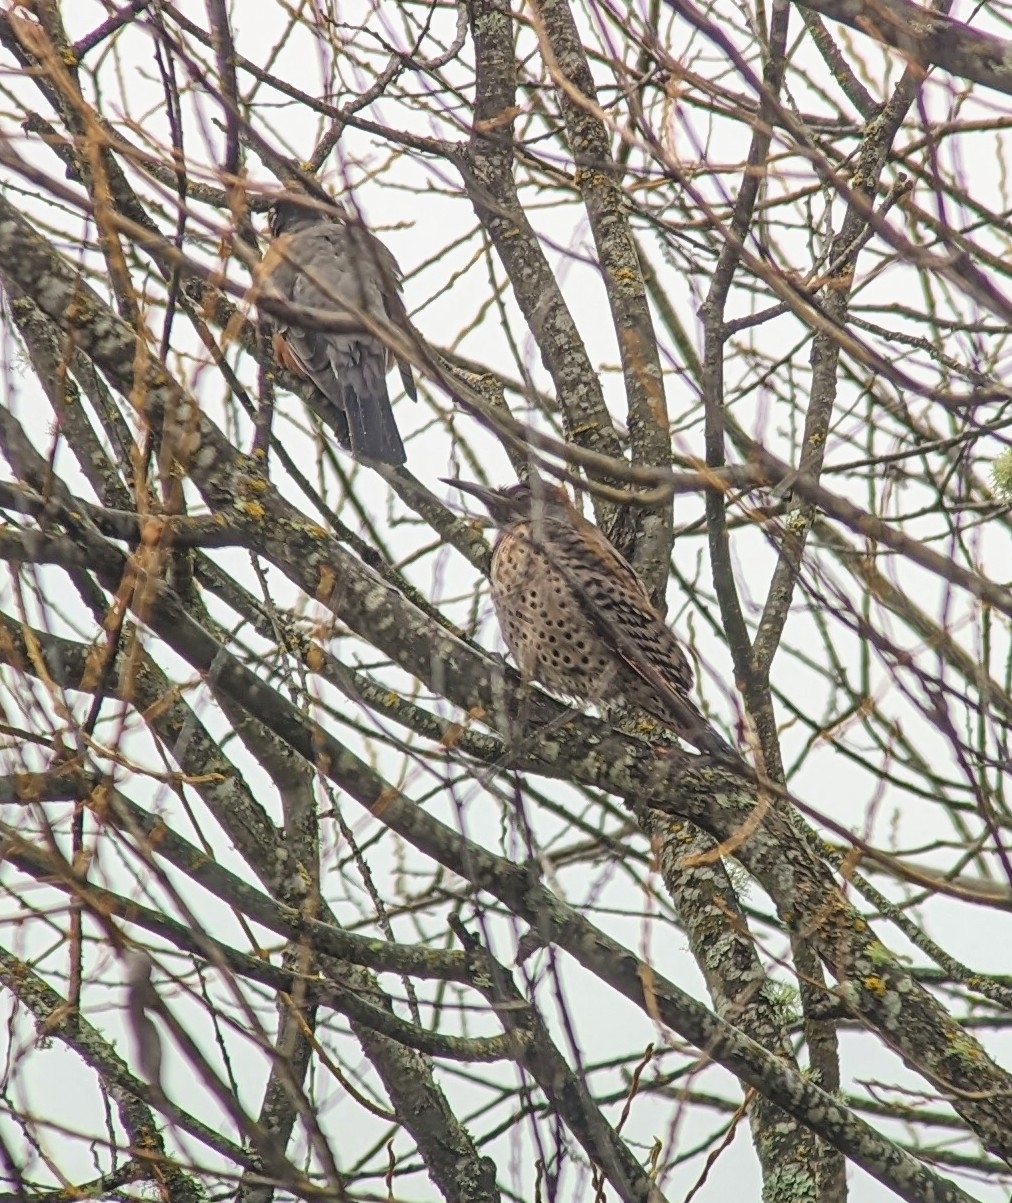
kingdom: Animalia
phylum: Chordata
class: Aves
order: Piciformes
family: Picidae
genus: Colaptes
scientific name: Colaptes auratus
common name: Northern flicker
